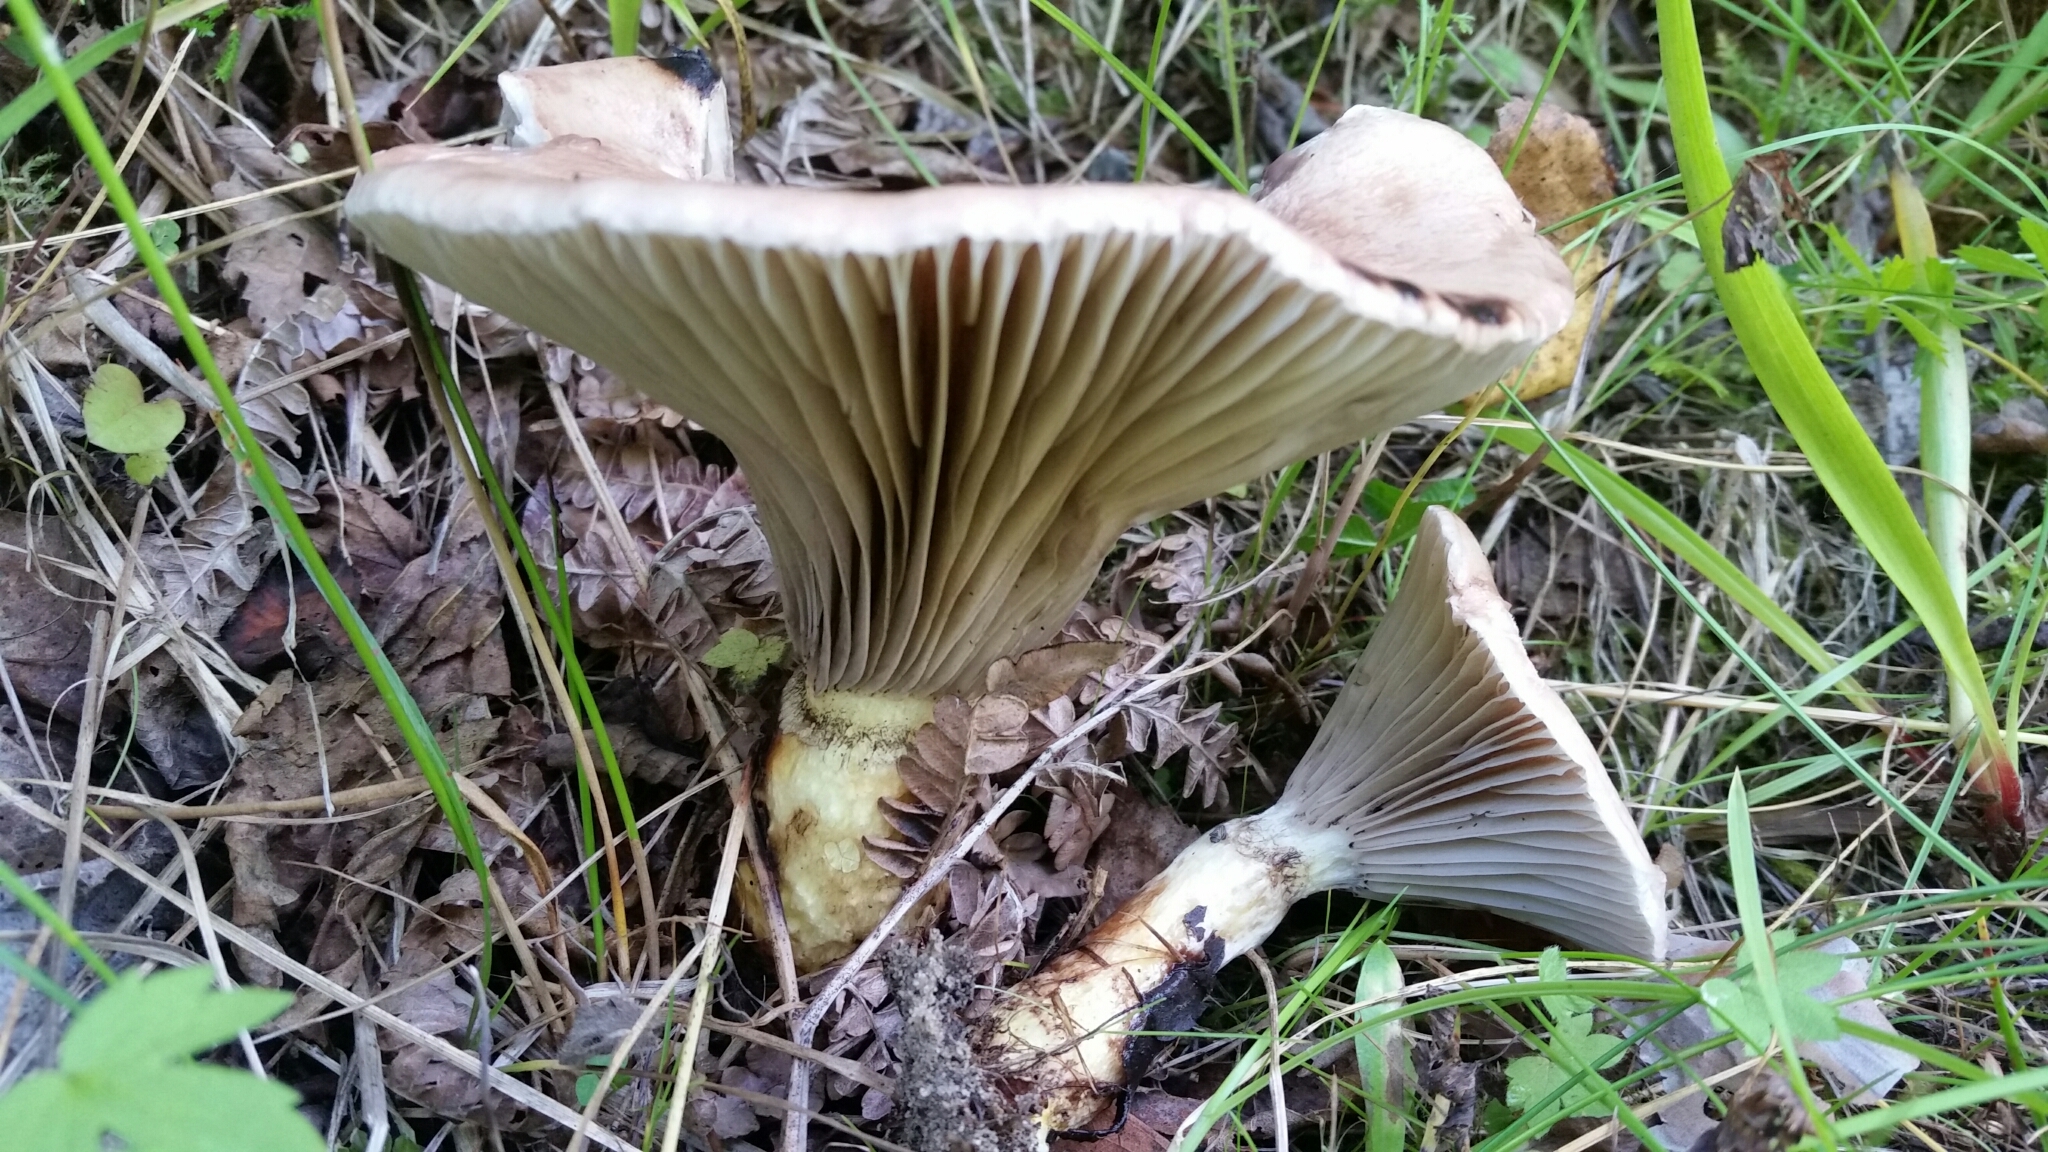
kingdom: Fungi
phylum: Basidiomycota
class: Agaricomycetes
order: Boletales
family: Gomphidiaceae
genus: Gomphidius
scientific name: Gomphidius glutinosus
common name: Slimy spike
